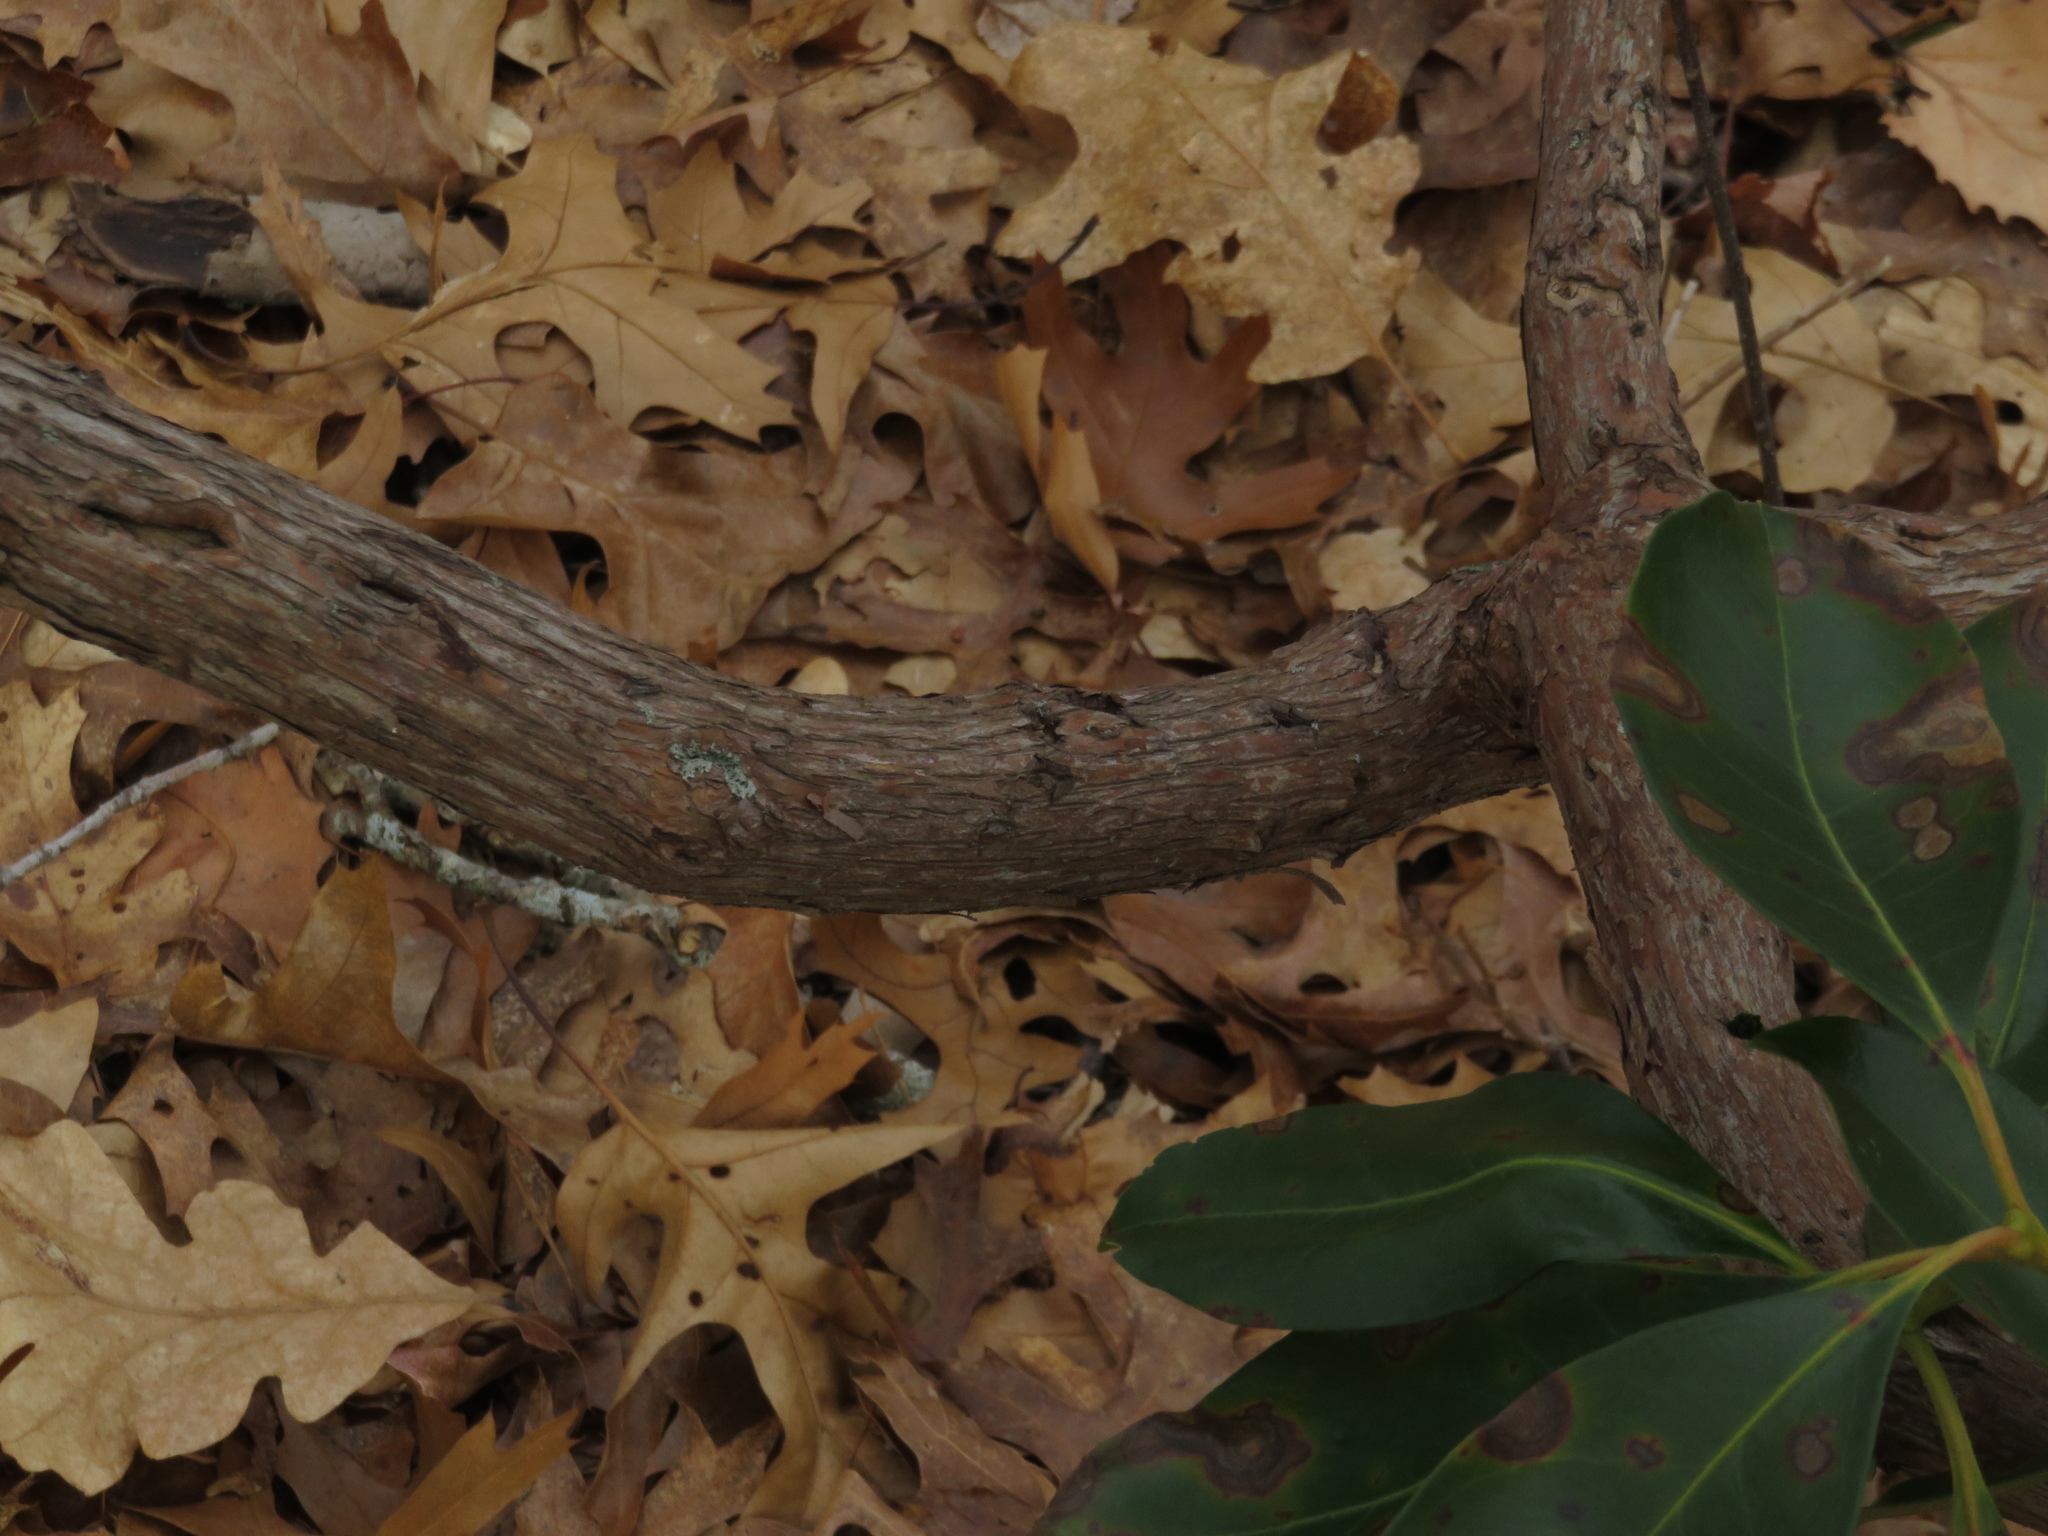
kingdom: Plantae
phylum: Tracheophyta
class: Magnoliopsida
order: Ericales
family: Ericaceae
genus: Kalmia
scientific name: Kalmia latifolia
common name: Mountain-laurel
